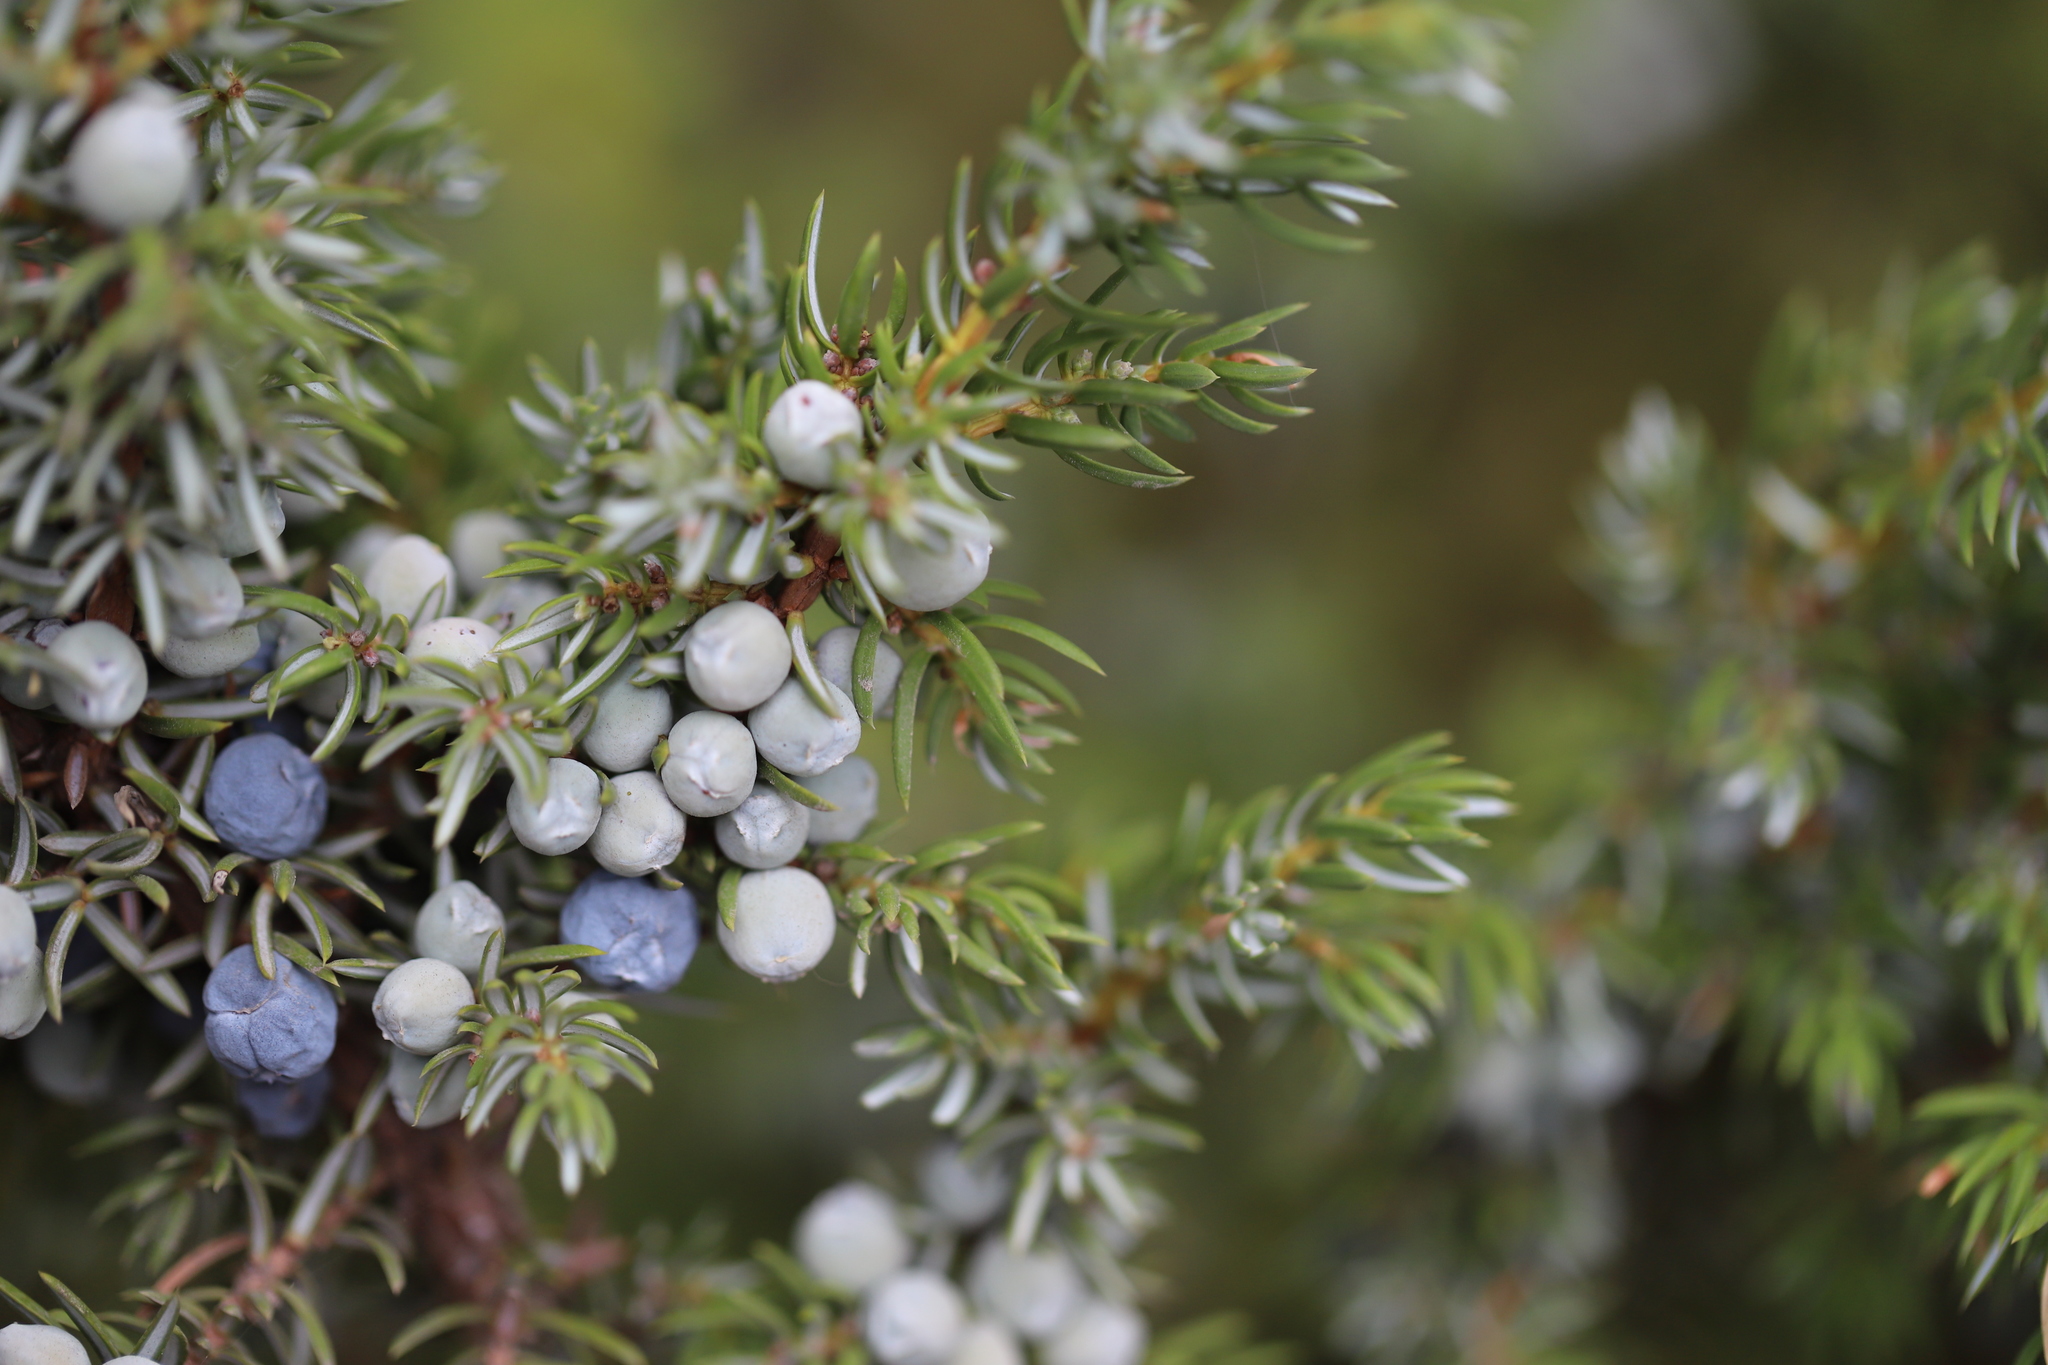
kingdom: Plantae
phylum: Tracheophyta
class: Pinopsida
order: Pinales
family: Cupressaceae
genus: Juniperus
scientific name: Juniperus communis
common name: Common juniper
